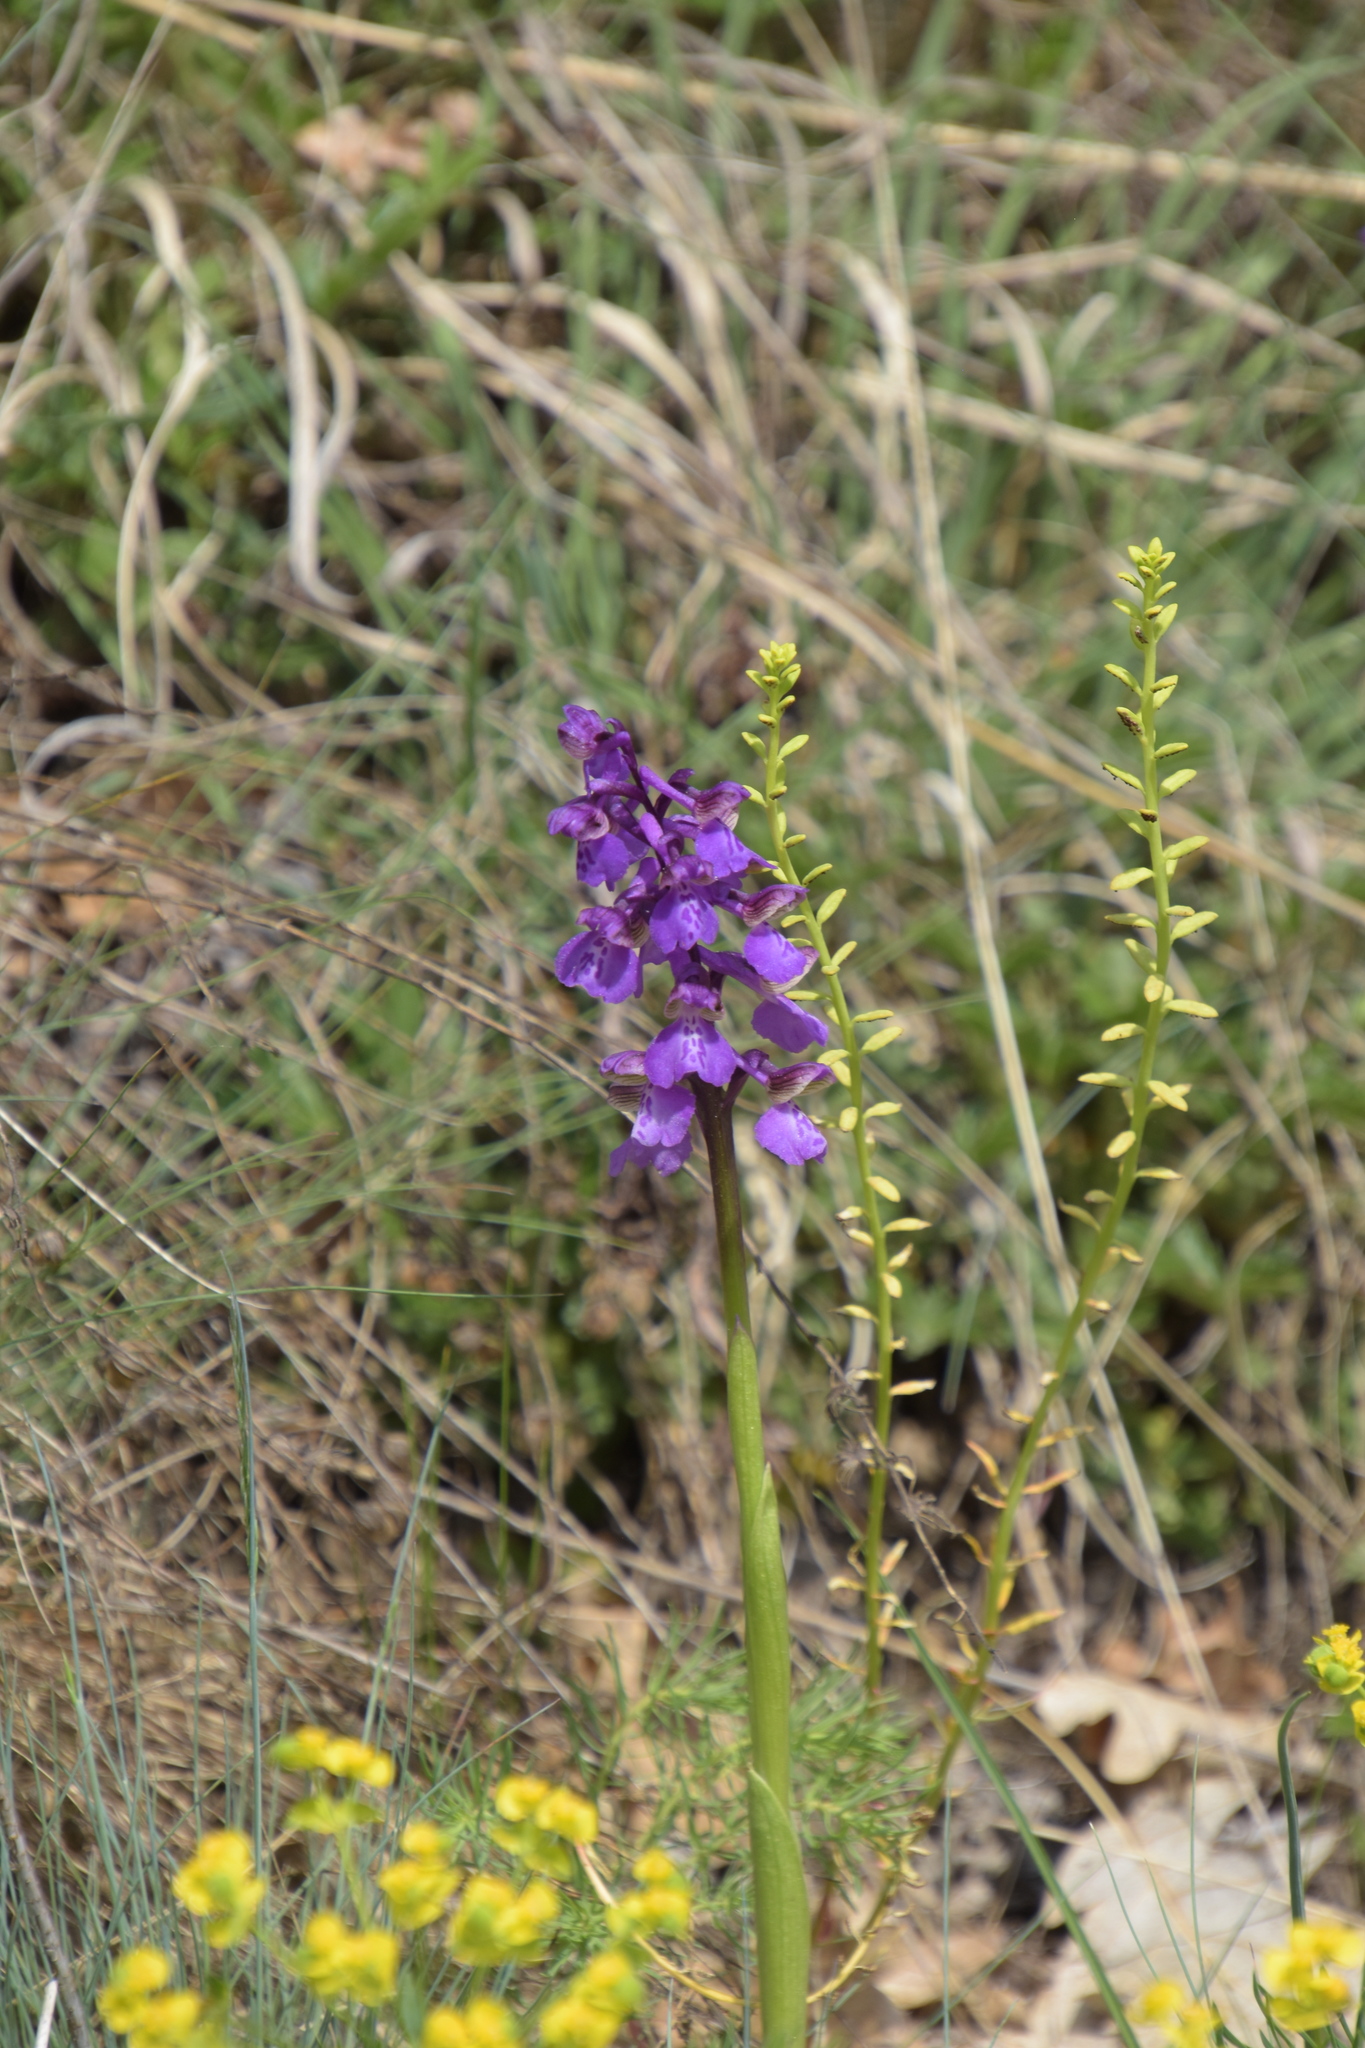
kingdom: Plantae
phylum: Tracheophyta
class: Liliopsida
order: Asparagales
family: Orchidaceae
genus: Anacamptis
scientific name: Anacamptis morio
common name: Green-winged orchid
